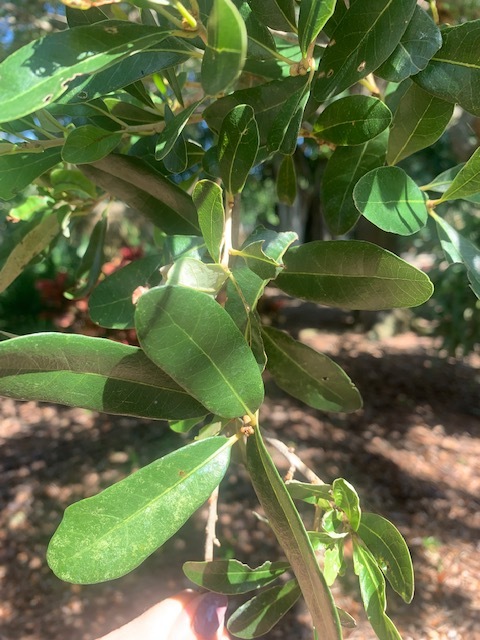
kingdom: Plantae
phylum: Tracheophyta
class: Magnoliopsida
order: Fagales
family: Fagaceae
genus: Quercus
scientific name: Quercus virginiana
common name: Southern live oak
